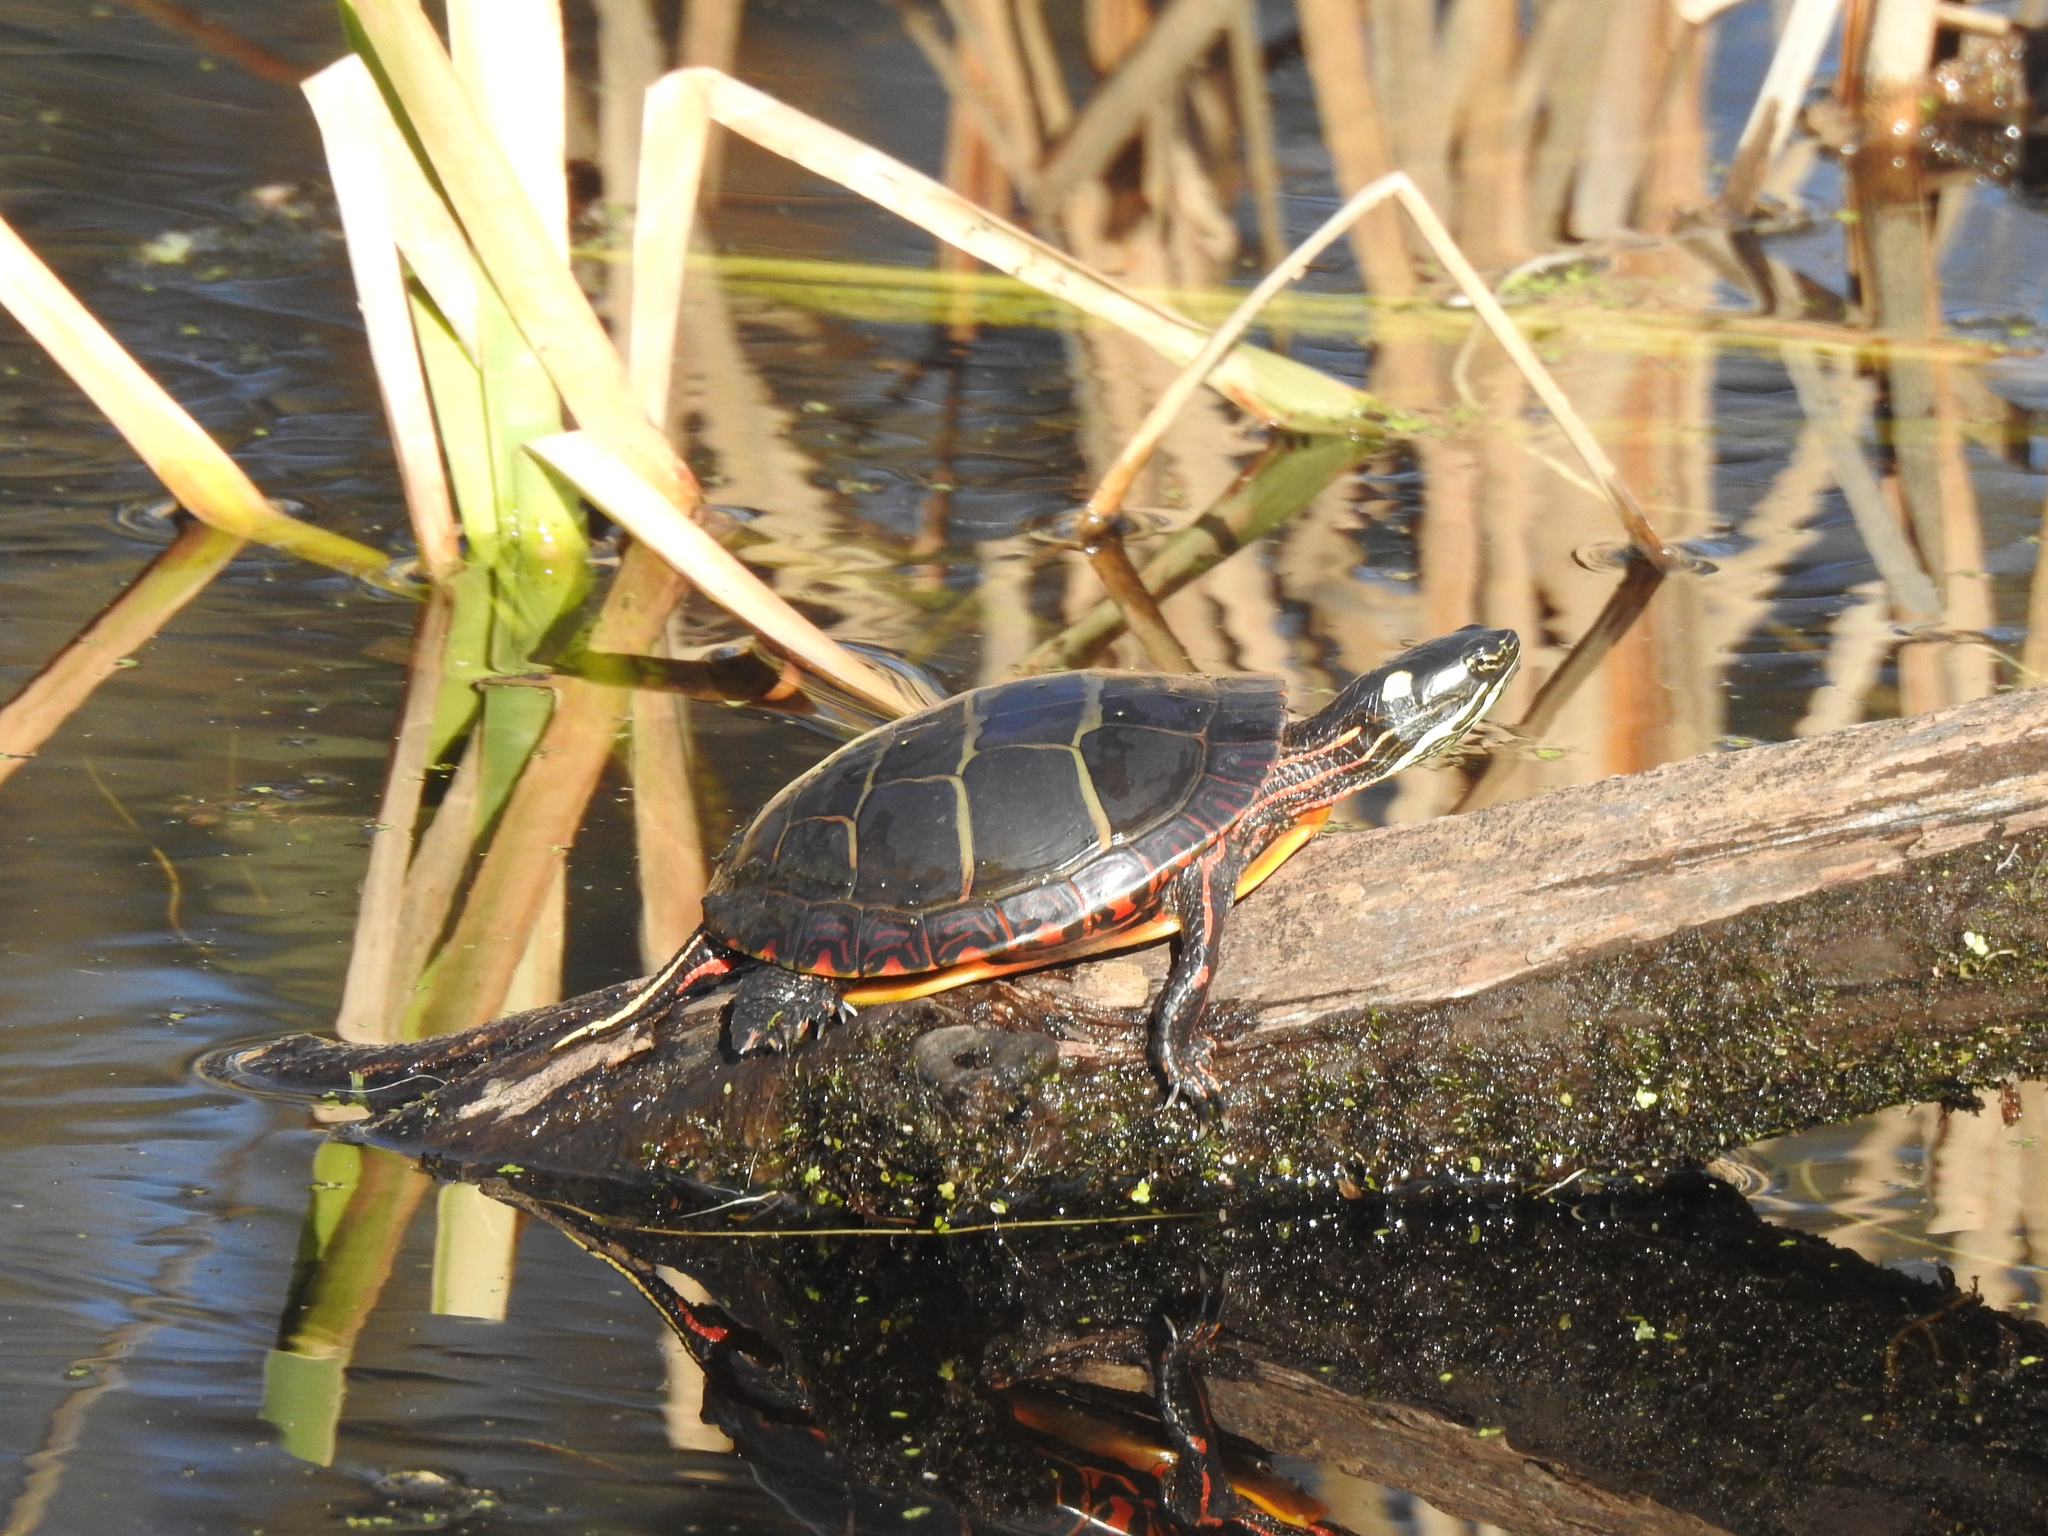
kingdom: Animalia
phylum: Chordata
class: Testudines
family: Emydidae
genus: Chrysemys
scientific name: Chrysemys picta
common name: Painted turtle
